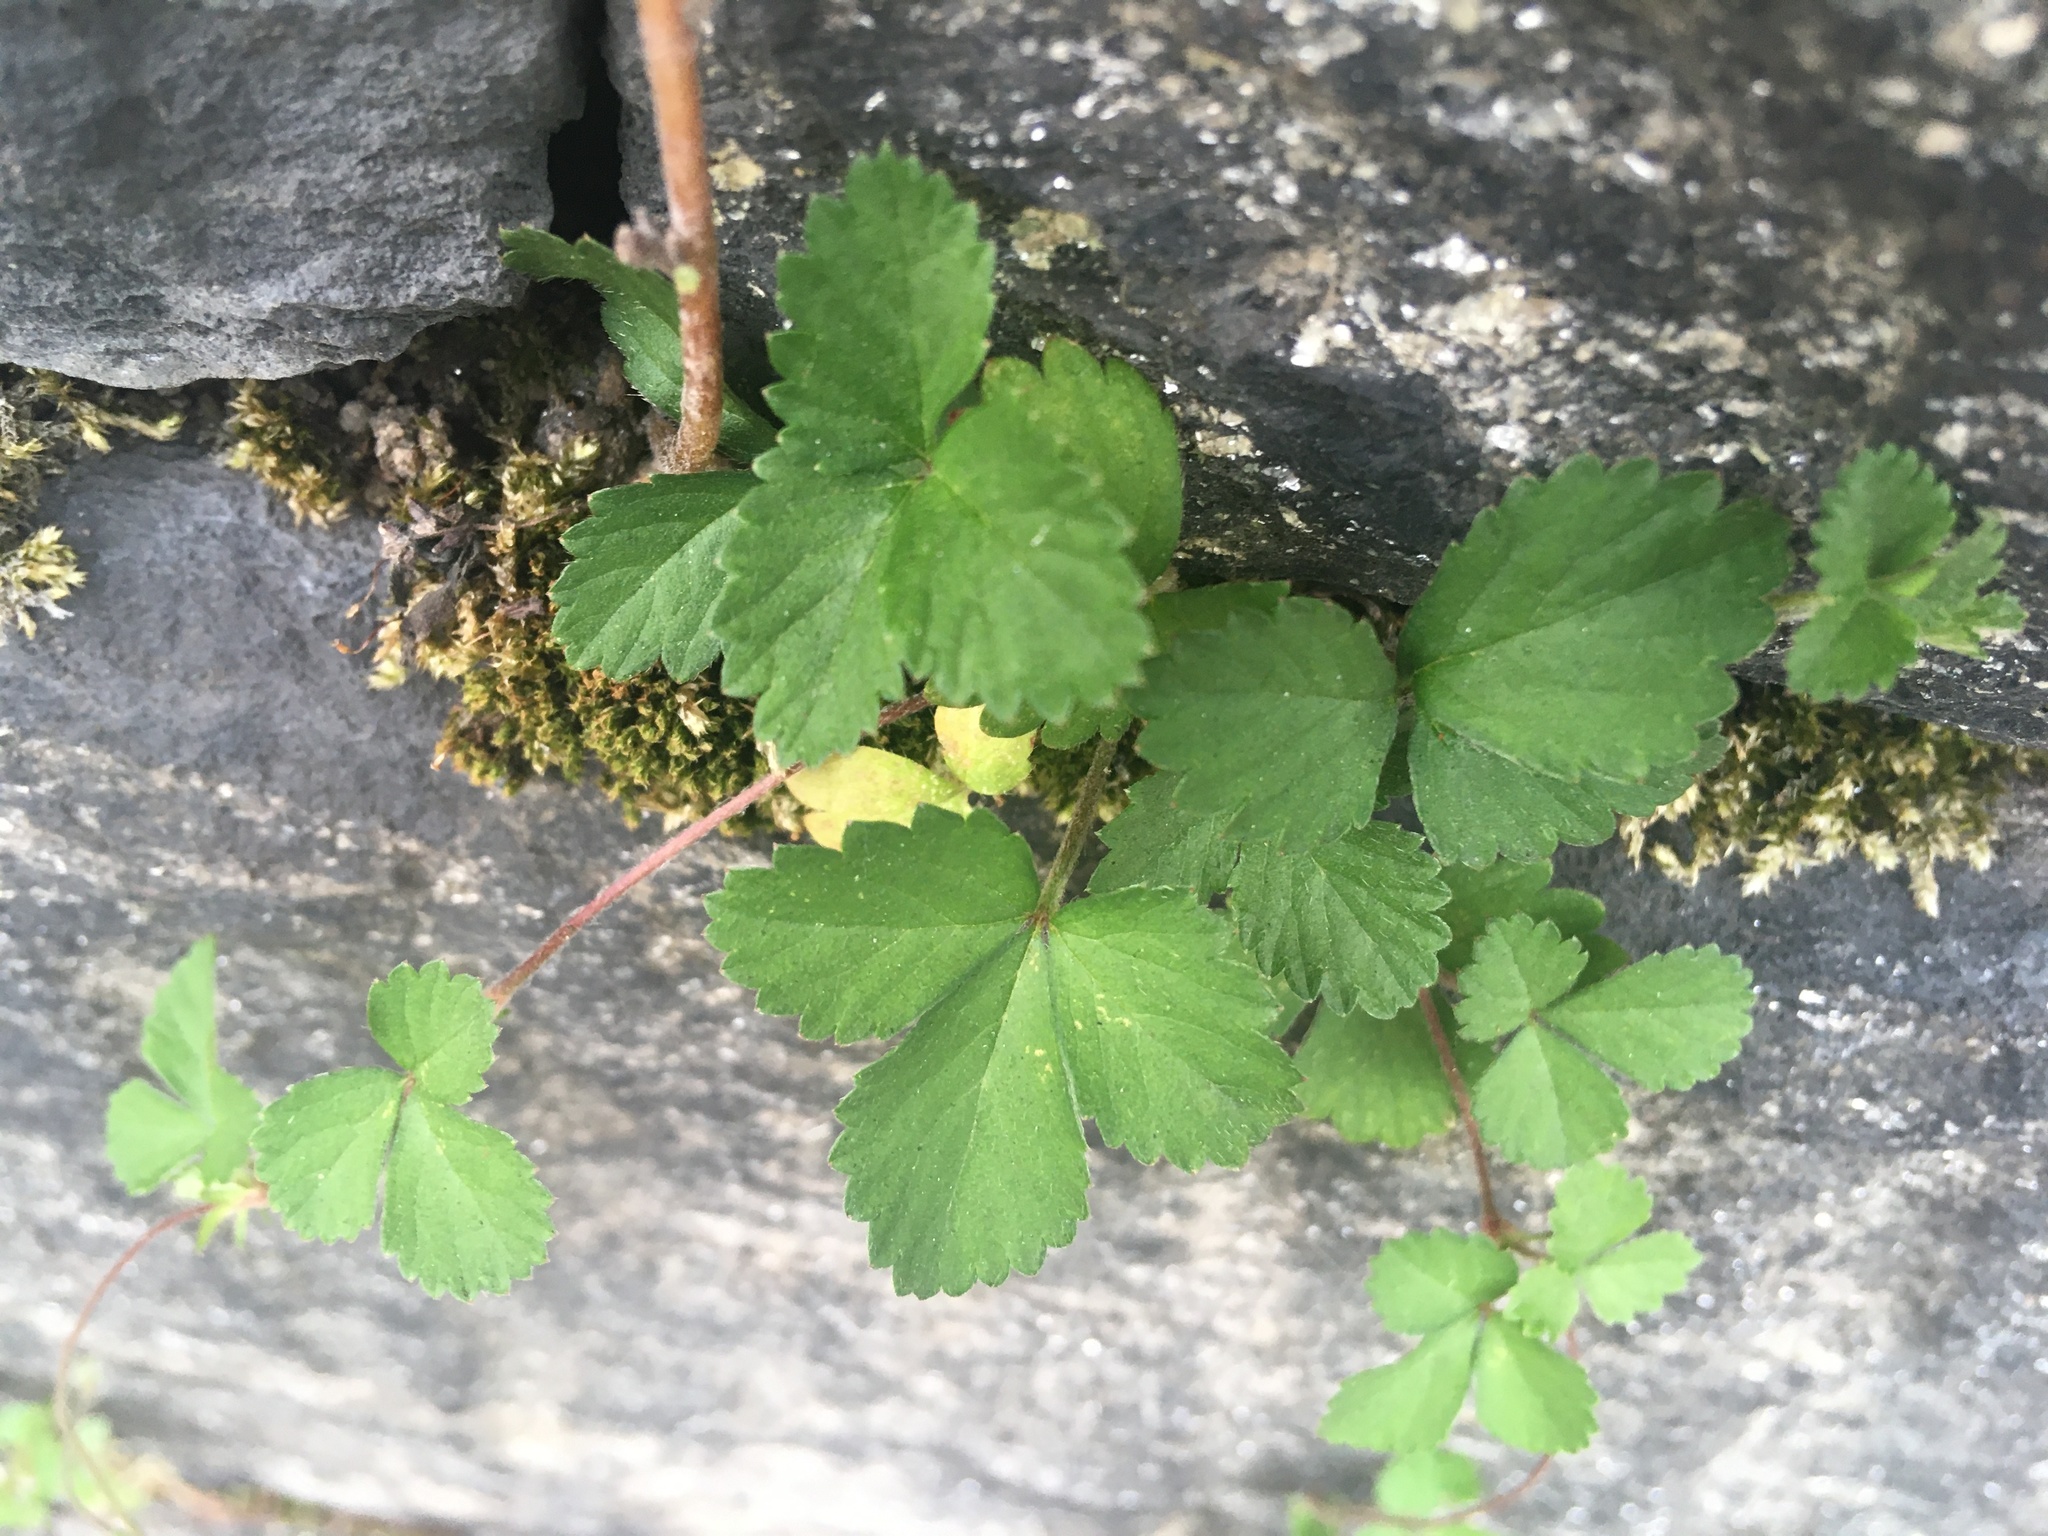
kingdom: Plantae
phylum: Tracheophyta
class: Magnoliopsida
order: Rosales
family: Rosaceae
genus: Potentilla
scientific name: Potentilla indica
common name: Yellow-flowered strawberry
